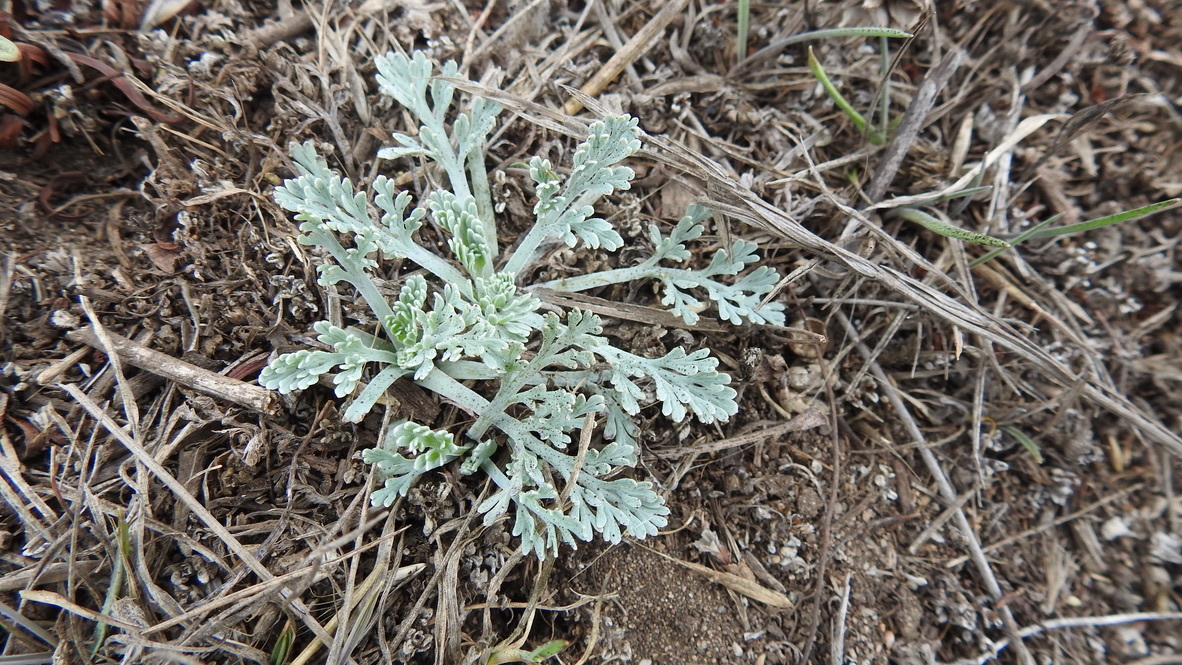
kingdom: Plantae
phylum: Tracheophyta
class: Magnoliopsida
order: Ranunculales
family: Papaveraceae
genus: Eschscholzia
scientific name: Eschscholzia californica
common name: California poppy
